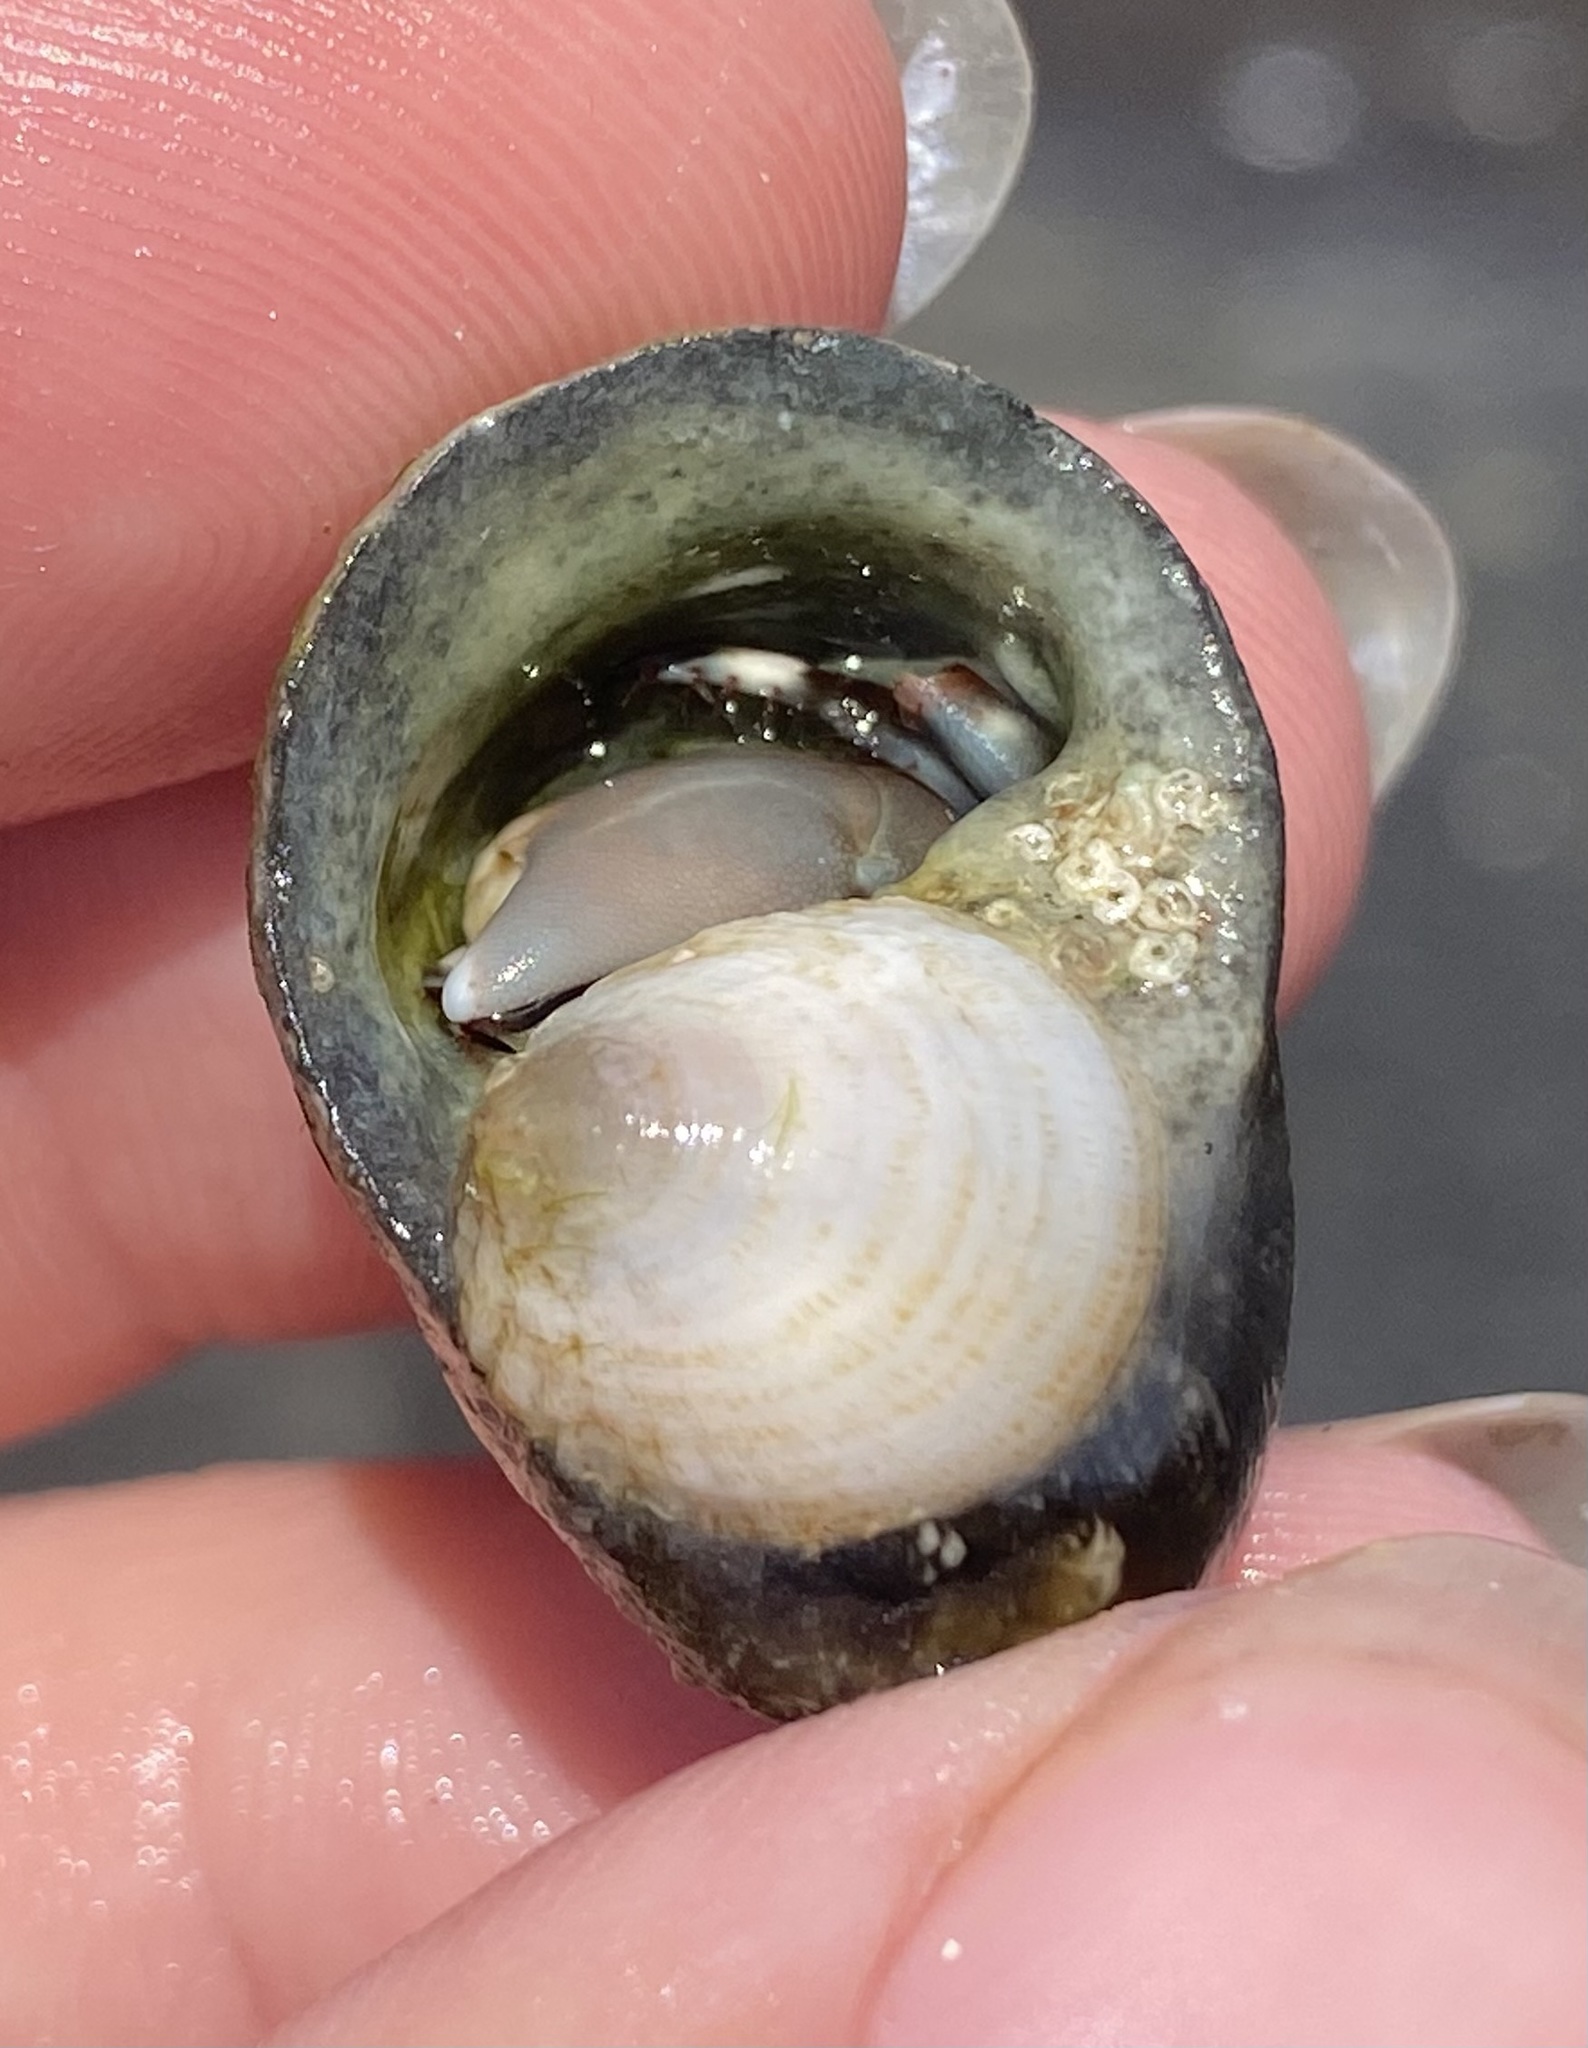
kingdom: Animalia
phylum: Arthropoda
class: Malacostraca
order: Decapoda
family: Diogenidae
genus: Calcinus
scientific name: Calcinus seurati
